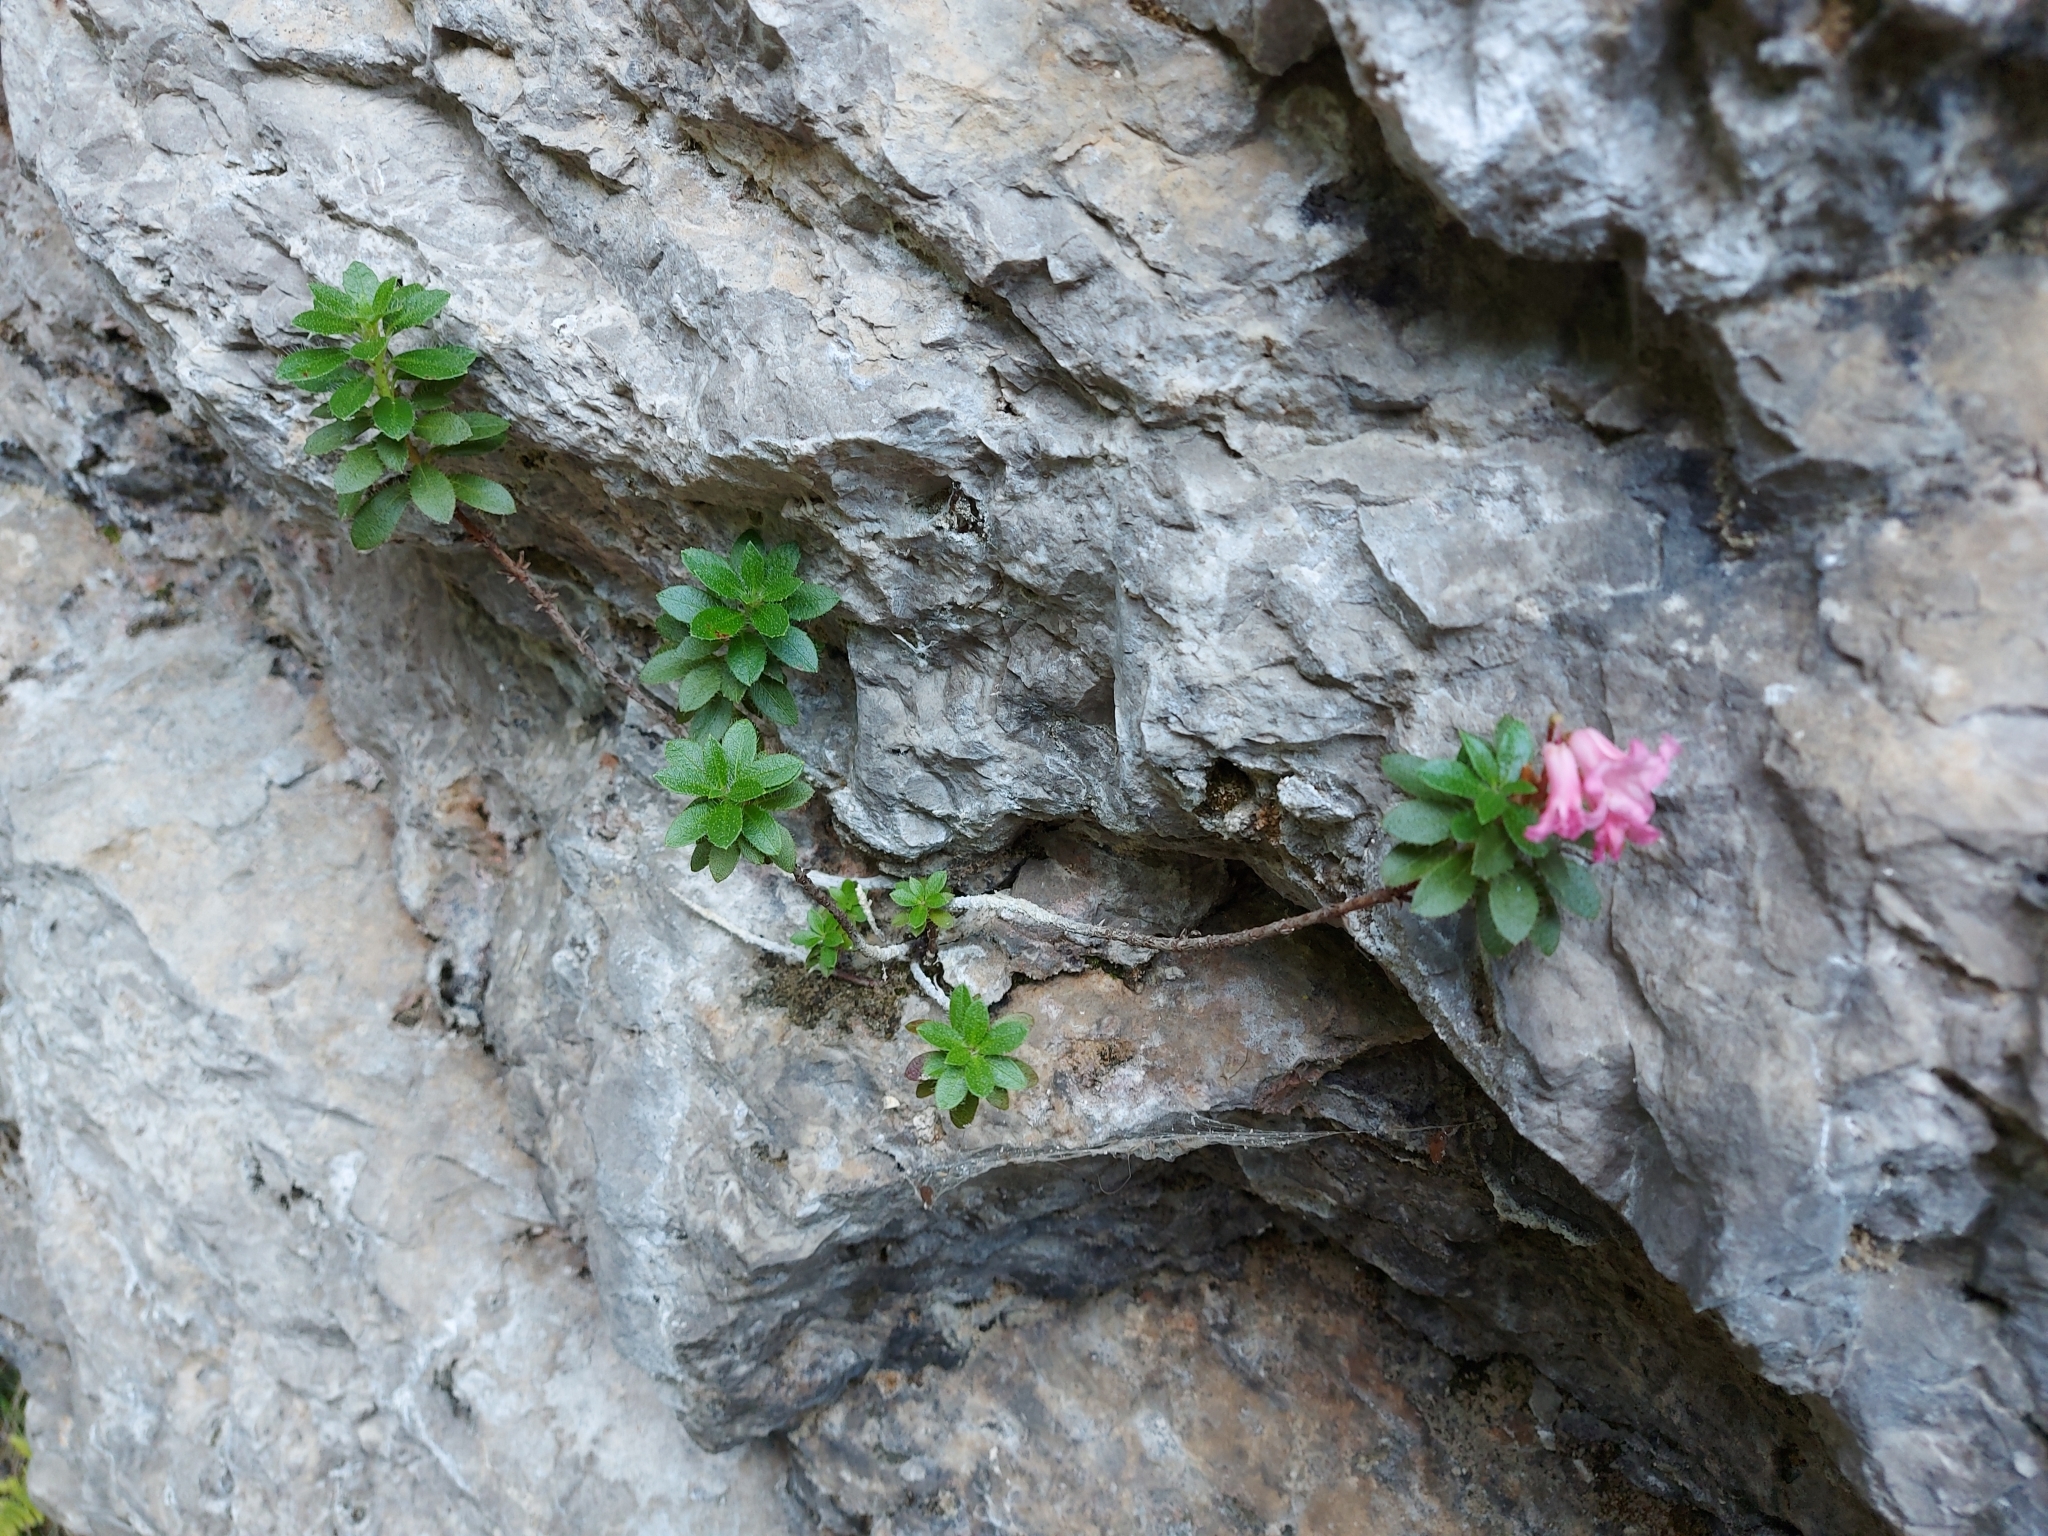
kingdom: Plantae
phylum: Tracheophyta
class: Magnoliopsida
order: Ericales
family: Ericaceae
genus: Rhododendron
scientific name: Rhododendron hirsutum
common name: Hairy alpenrose
